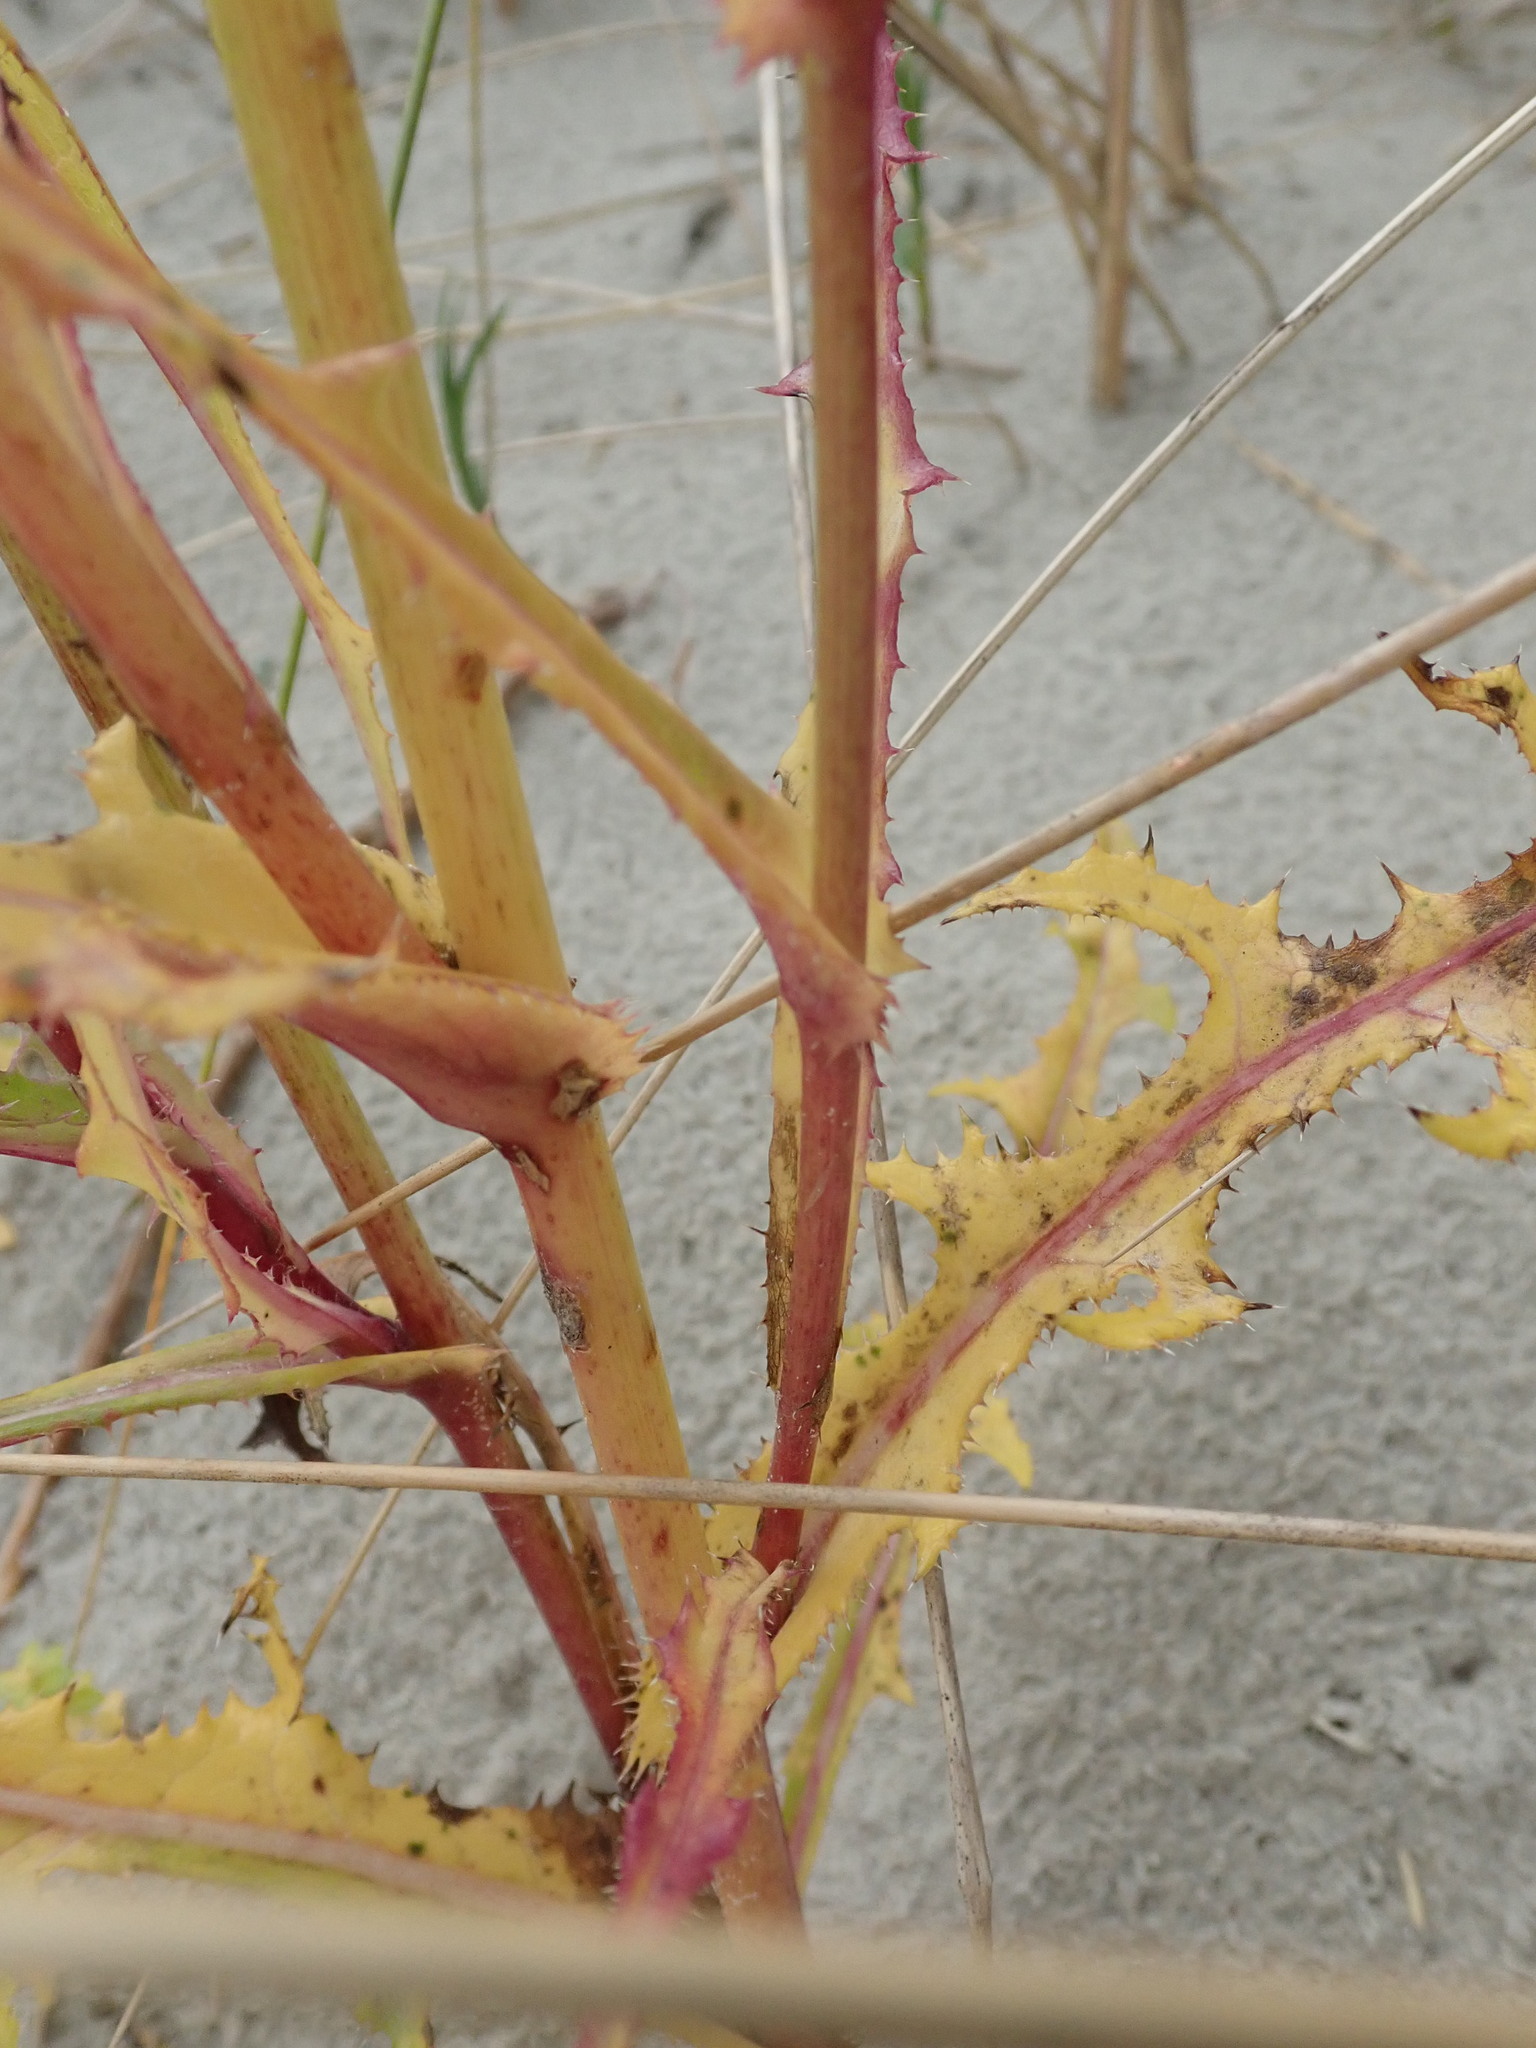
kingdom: Plantae
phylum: Tracheophyta
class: Magnoliopsida
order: Asterales
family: Asteraceae
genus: Sonchus
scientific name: Sonchus arvensis
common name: Perennial sow-thistle
